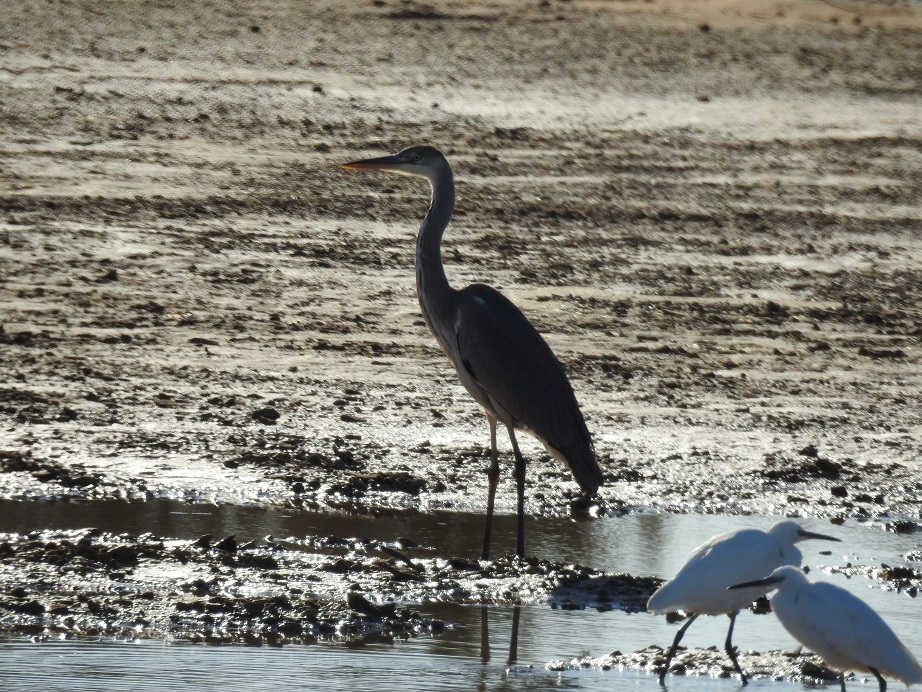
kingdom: Animalia
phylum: Chordata
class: Aves
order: Pelecaniformes
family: Ardeidae
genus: Ardea
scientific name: Ardea cinerea
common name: Grey heron
